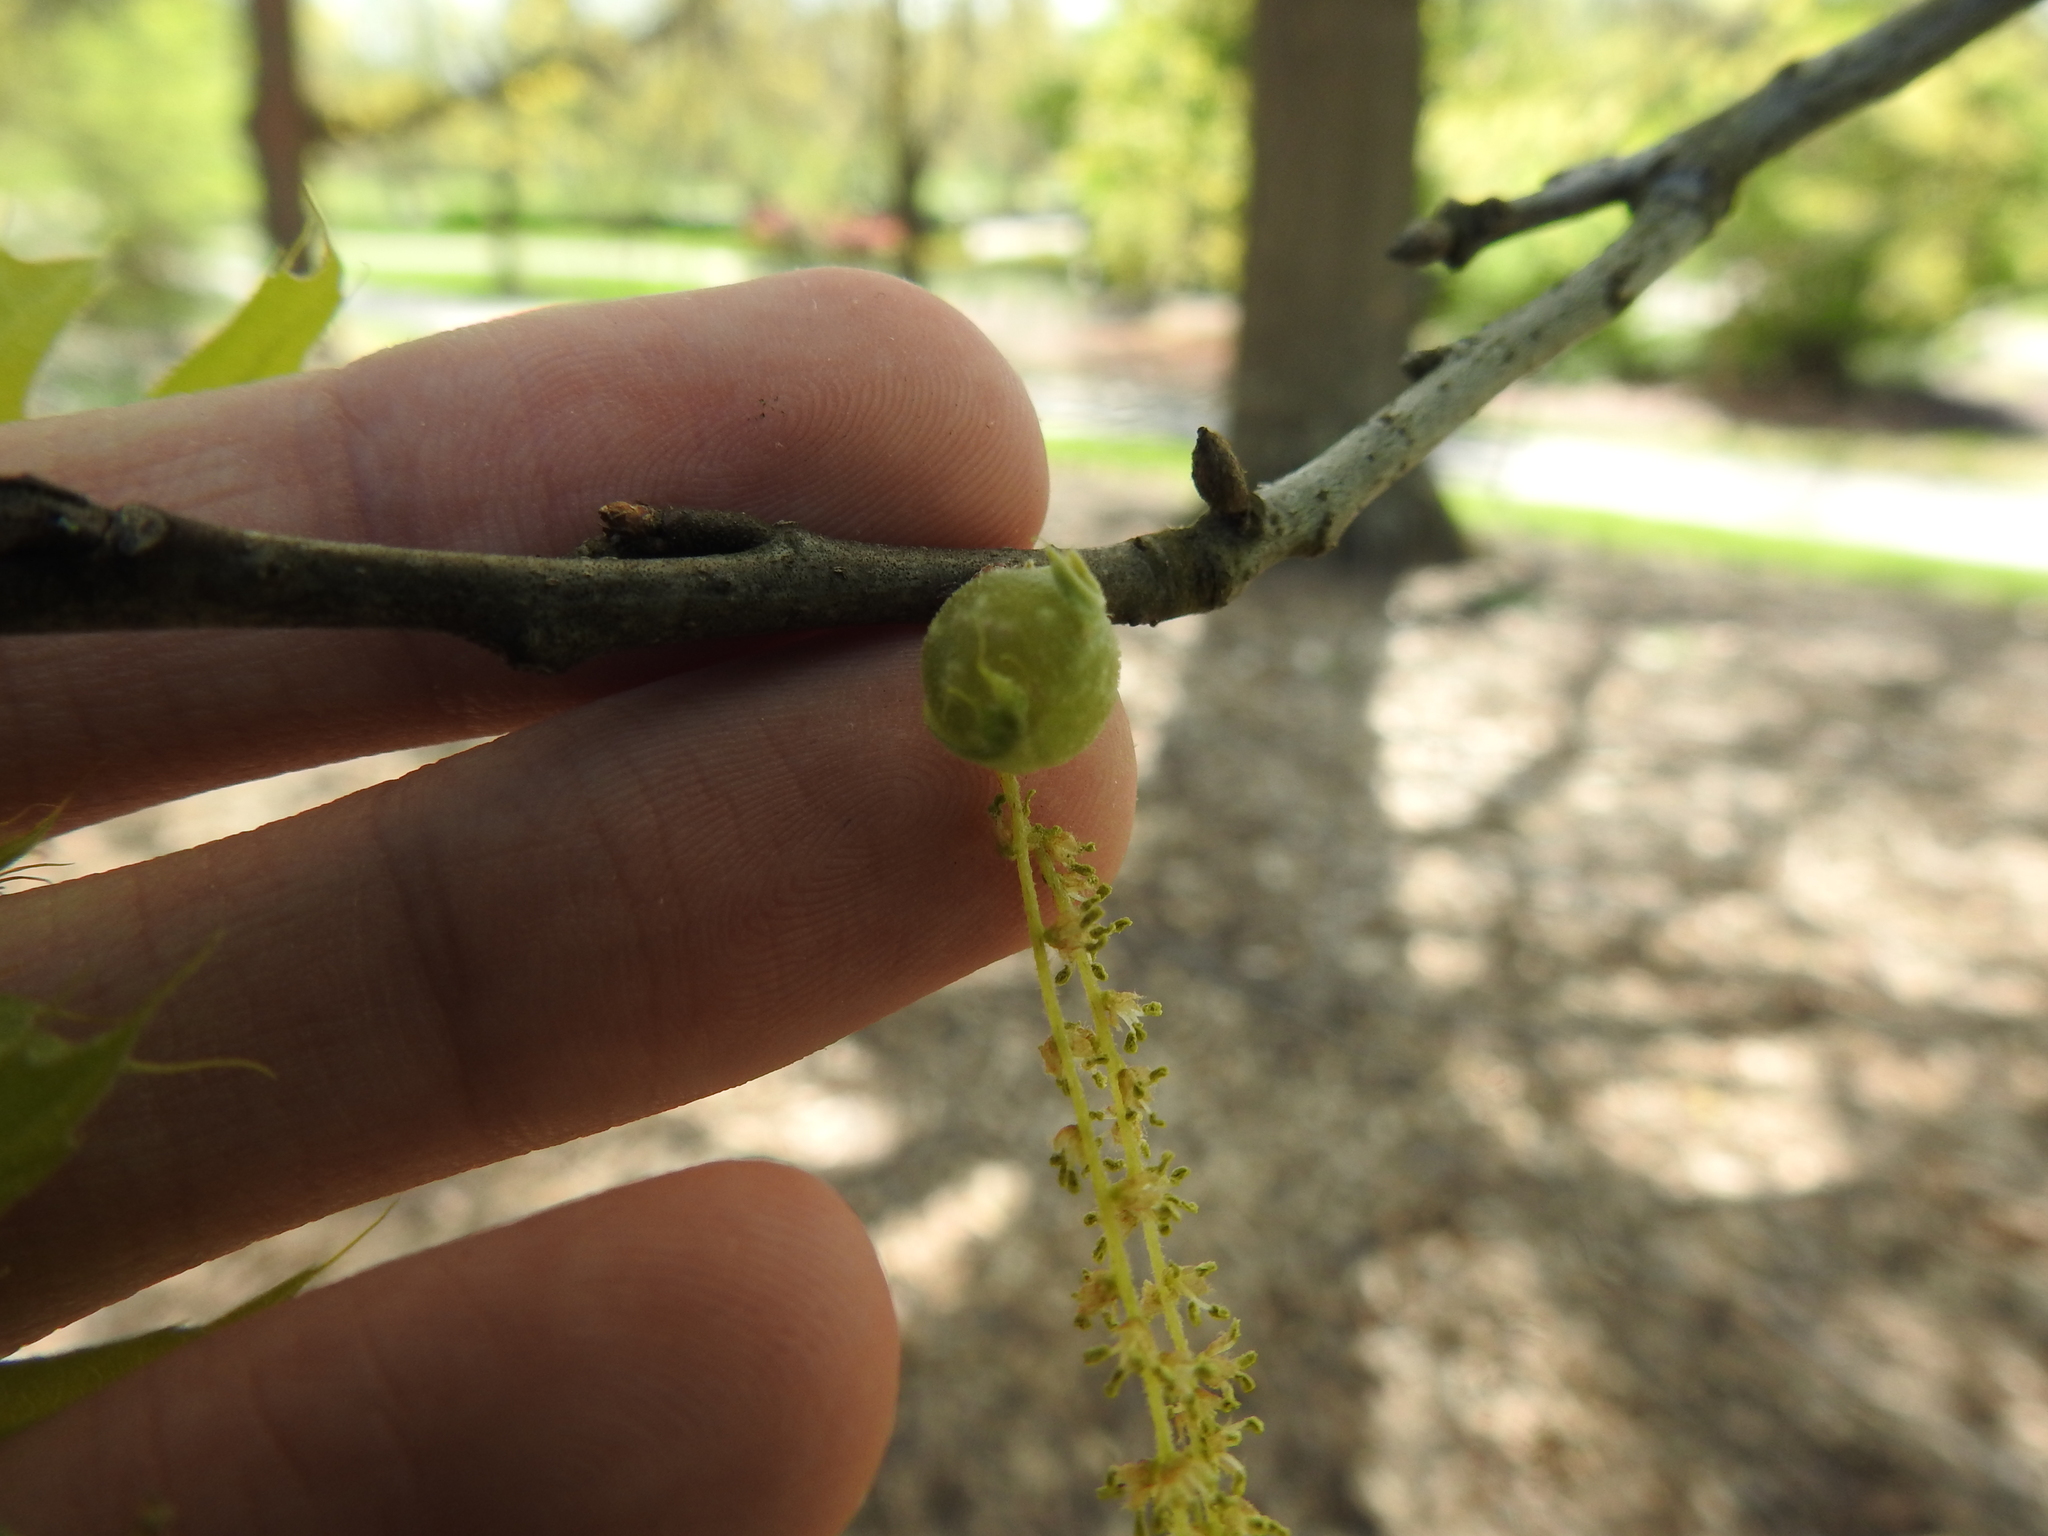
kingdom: Animalia
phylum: Arthropoda
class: Insecta
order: Hymenoptera
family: Cynipidae
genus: Dryocosmus
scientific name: Dryocosmus quercuspalustris
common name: Succulent oak gall wasp
